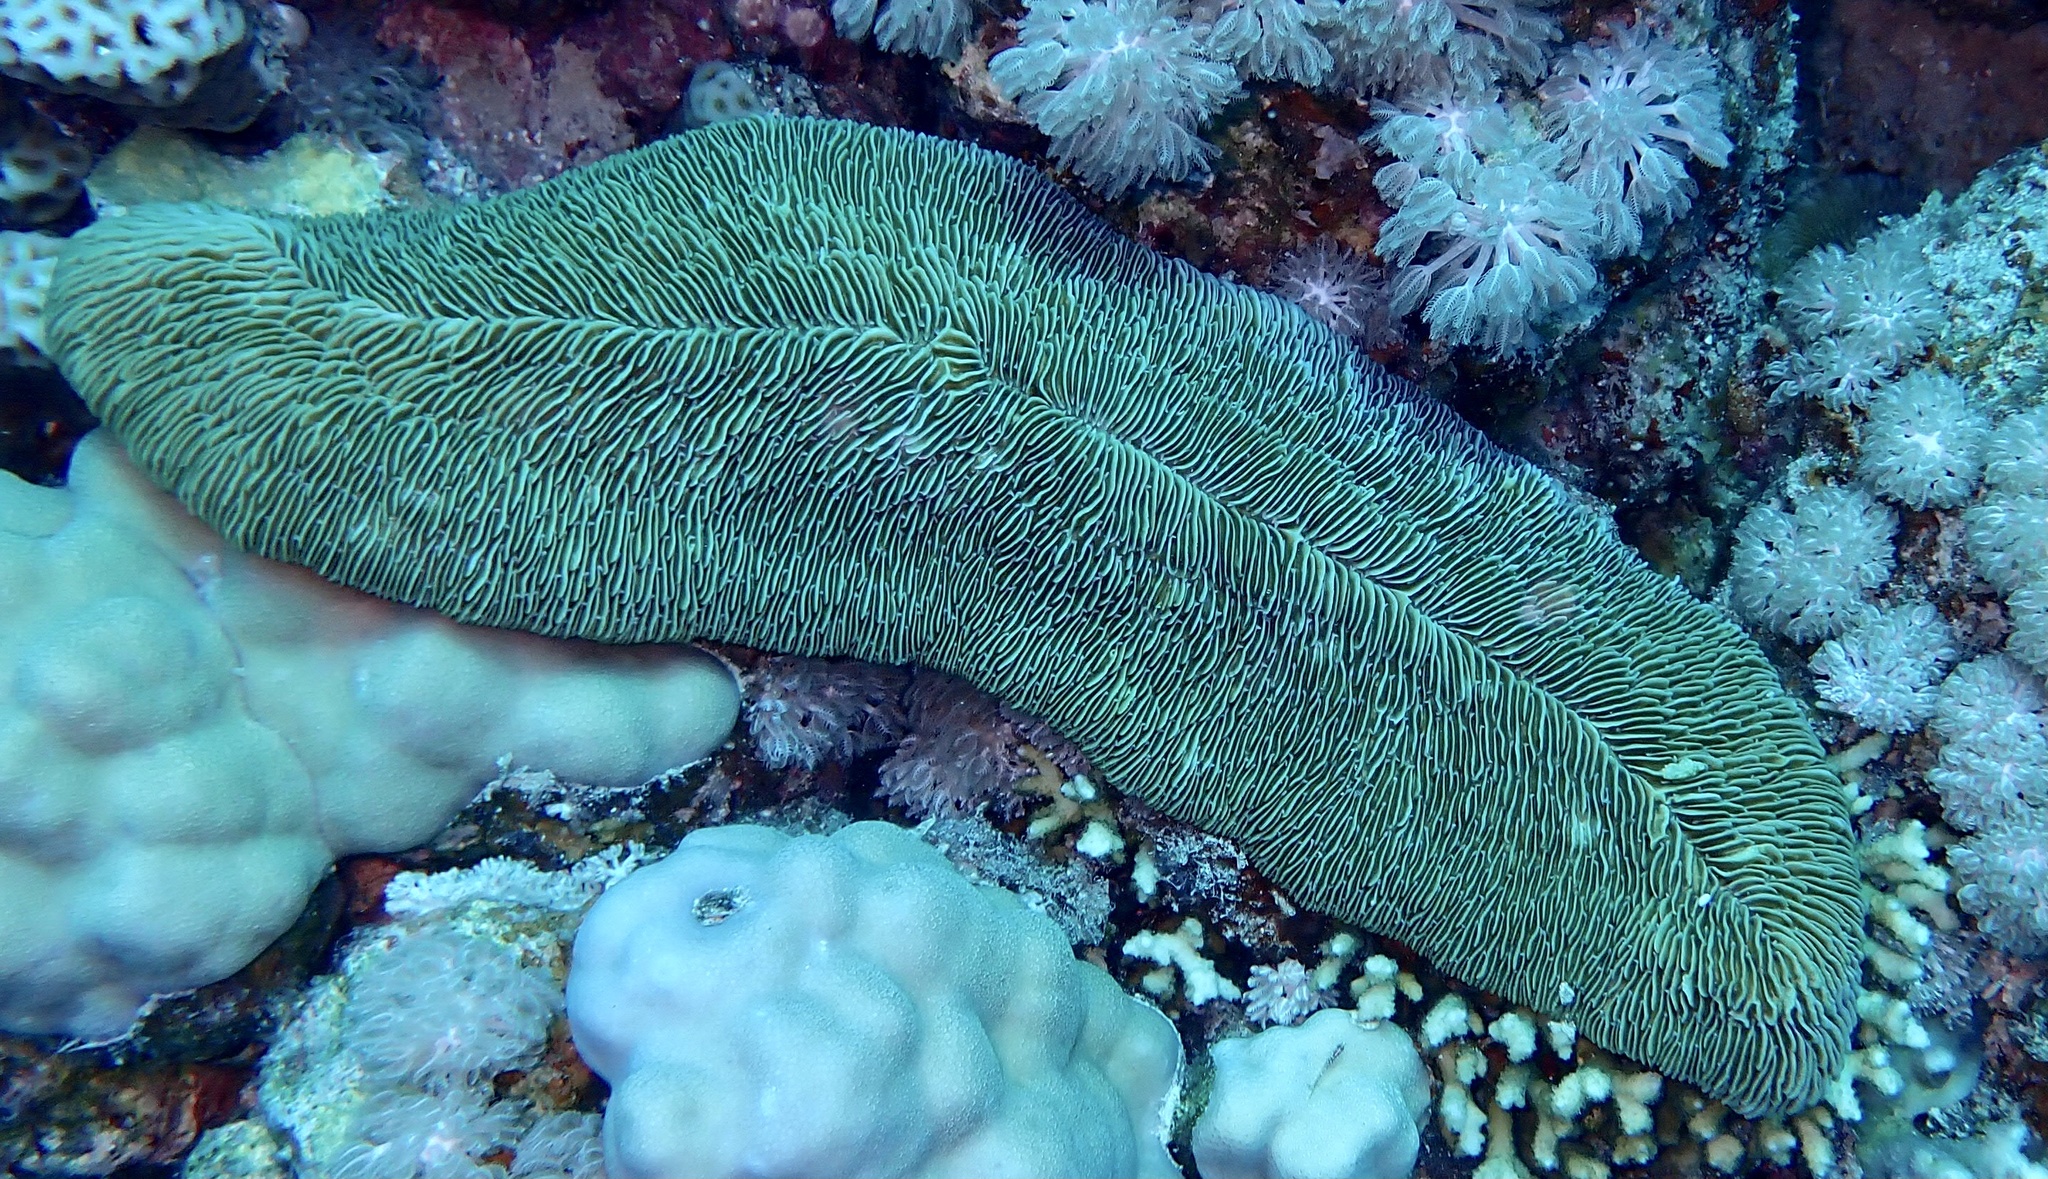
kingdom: Animalia
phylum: Cnidaria
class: Anthozoa
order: Scleractinia
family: Fungiidae
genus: Herpolitha
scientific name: Herpolitha limax
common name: Striate boomerang coral
